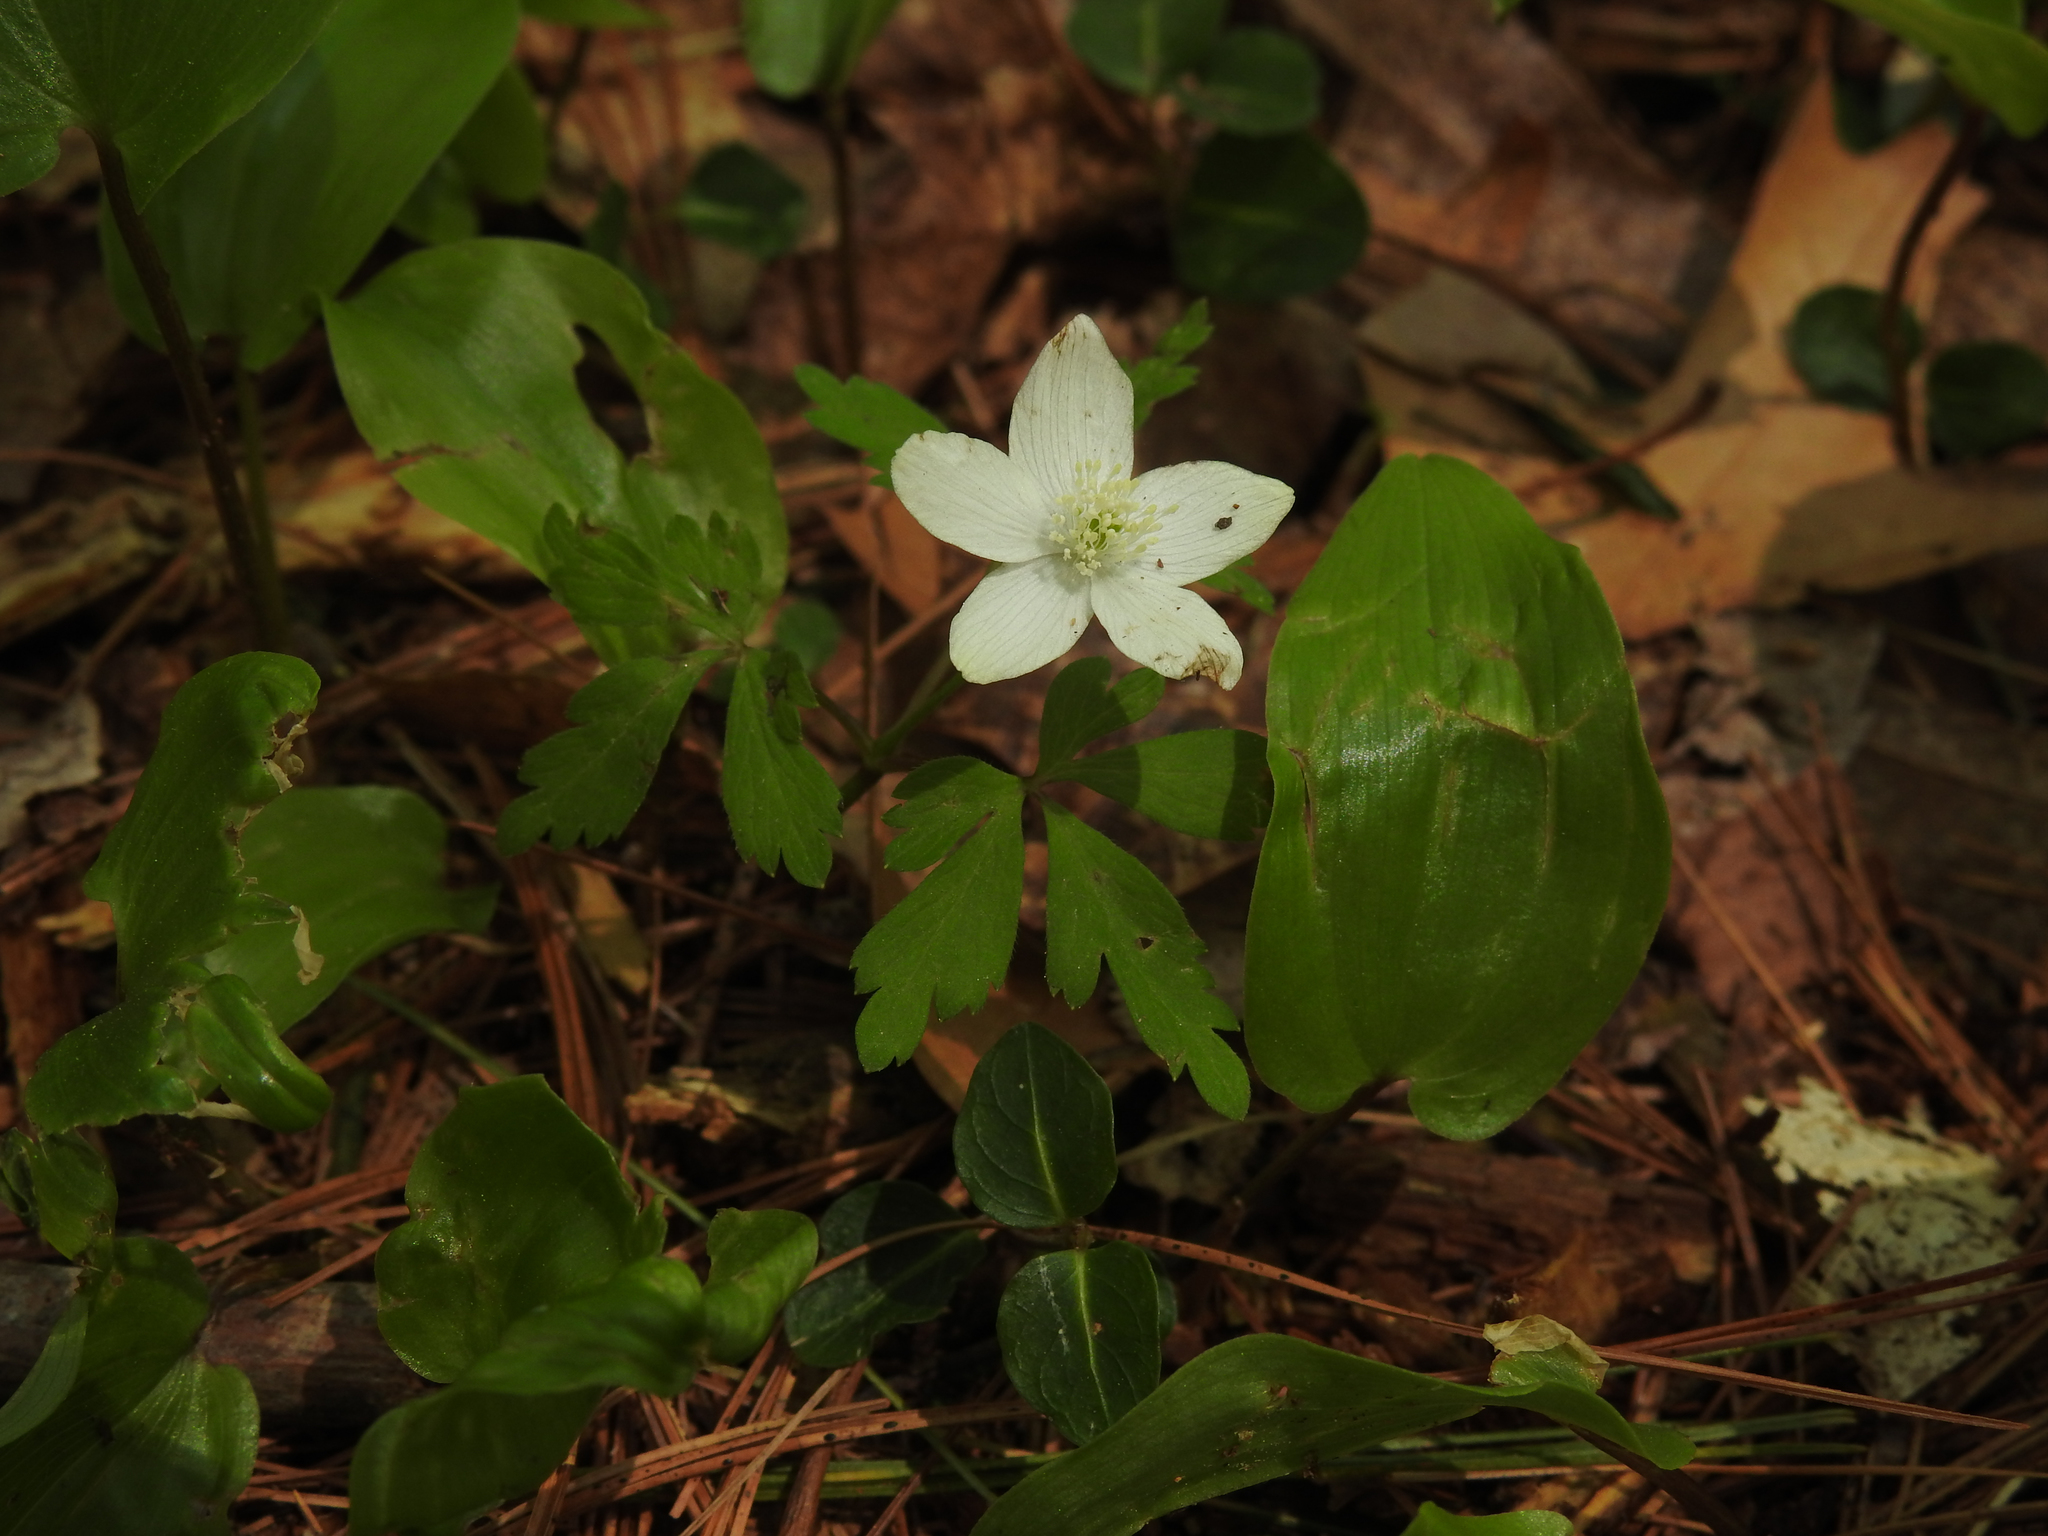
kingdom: Plantae
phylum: Tracheophyta
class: Magnoliopsida
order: Ranunculales
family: Ranunculaceae
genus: Anemone
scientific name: Anemone quinquefolia
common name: Wood anemone
